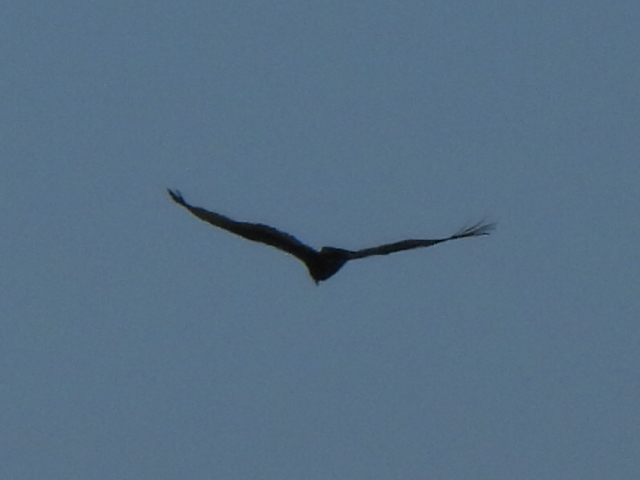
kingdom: Animalia
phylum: Chordata
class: Aves
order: Accipitriformes
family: Cathartidae
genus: Cathartes
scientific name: Cathartes aura
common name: Turkey vulture
